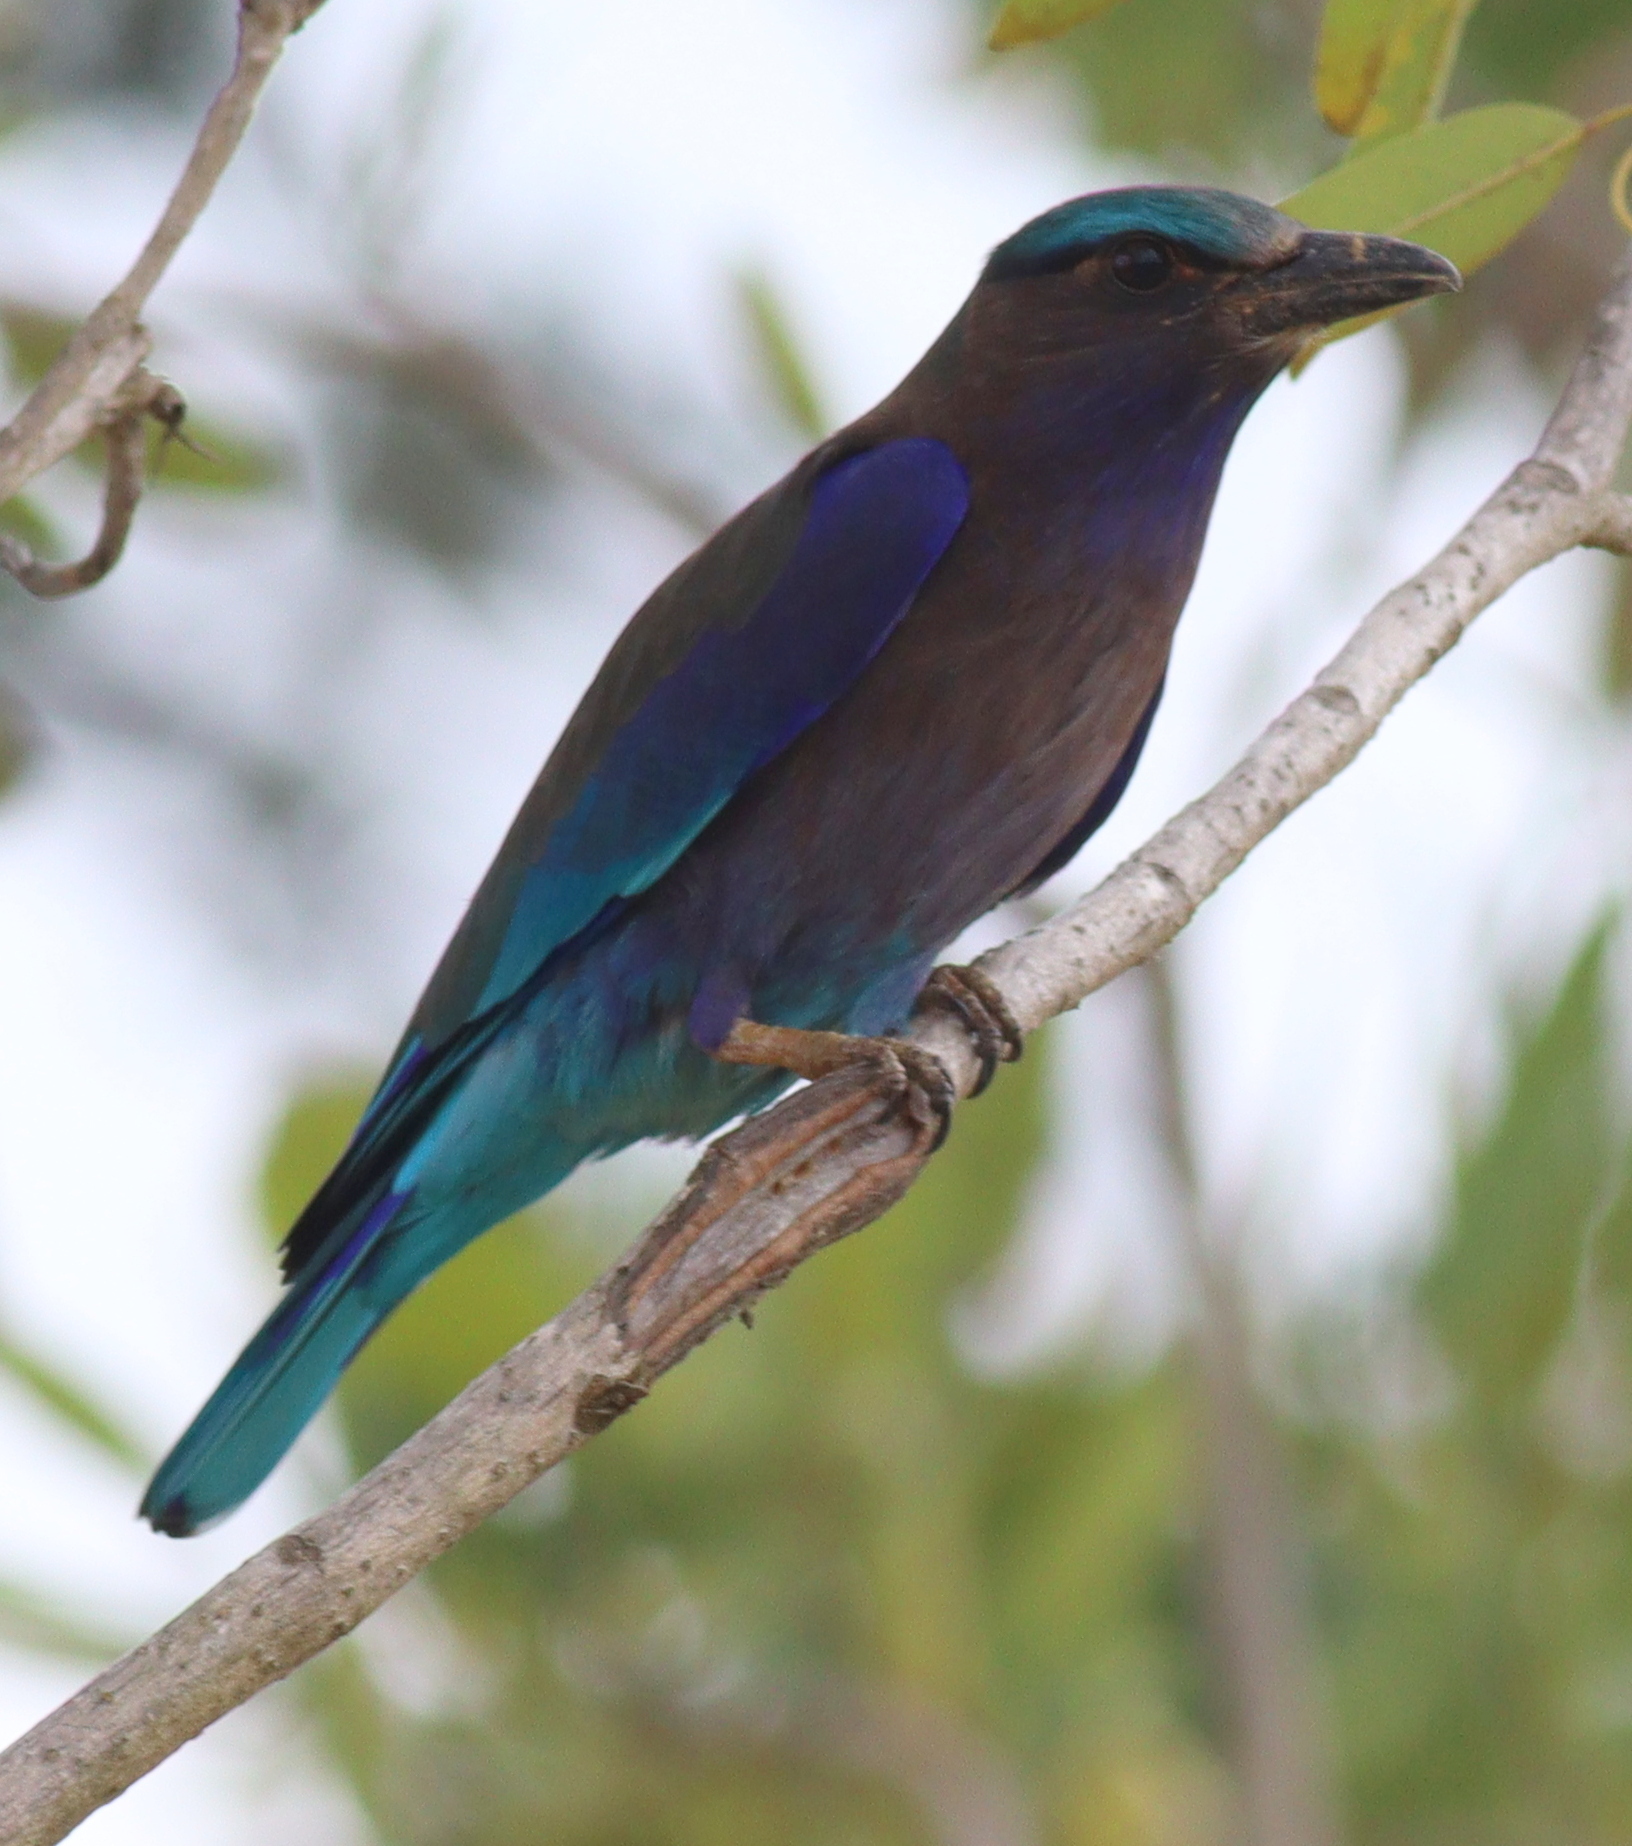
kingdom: Animalia
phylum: Chordata
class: Aves
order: Coraciiformes
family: Coraciidae
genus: Coracias
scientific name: Coracias affinis
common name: Indochinese roller
